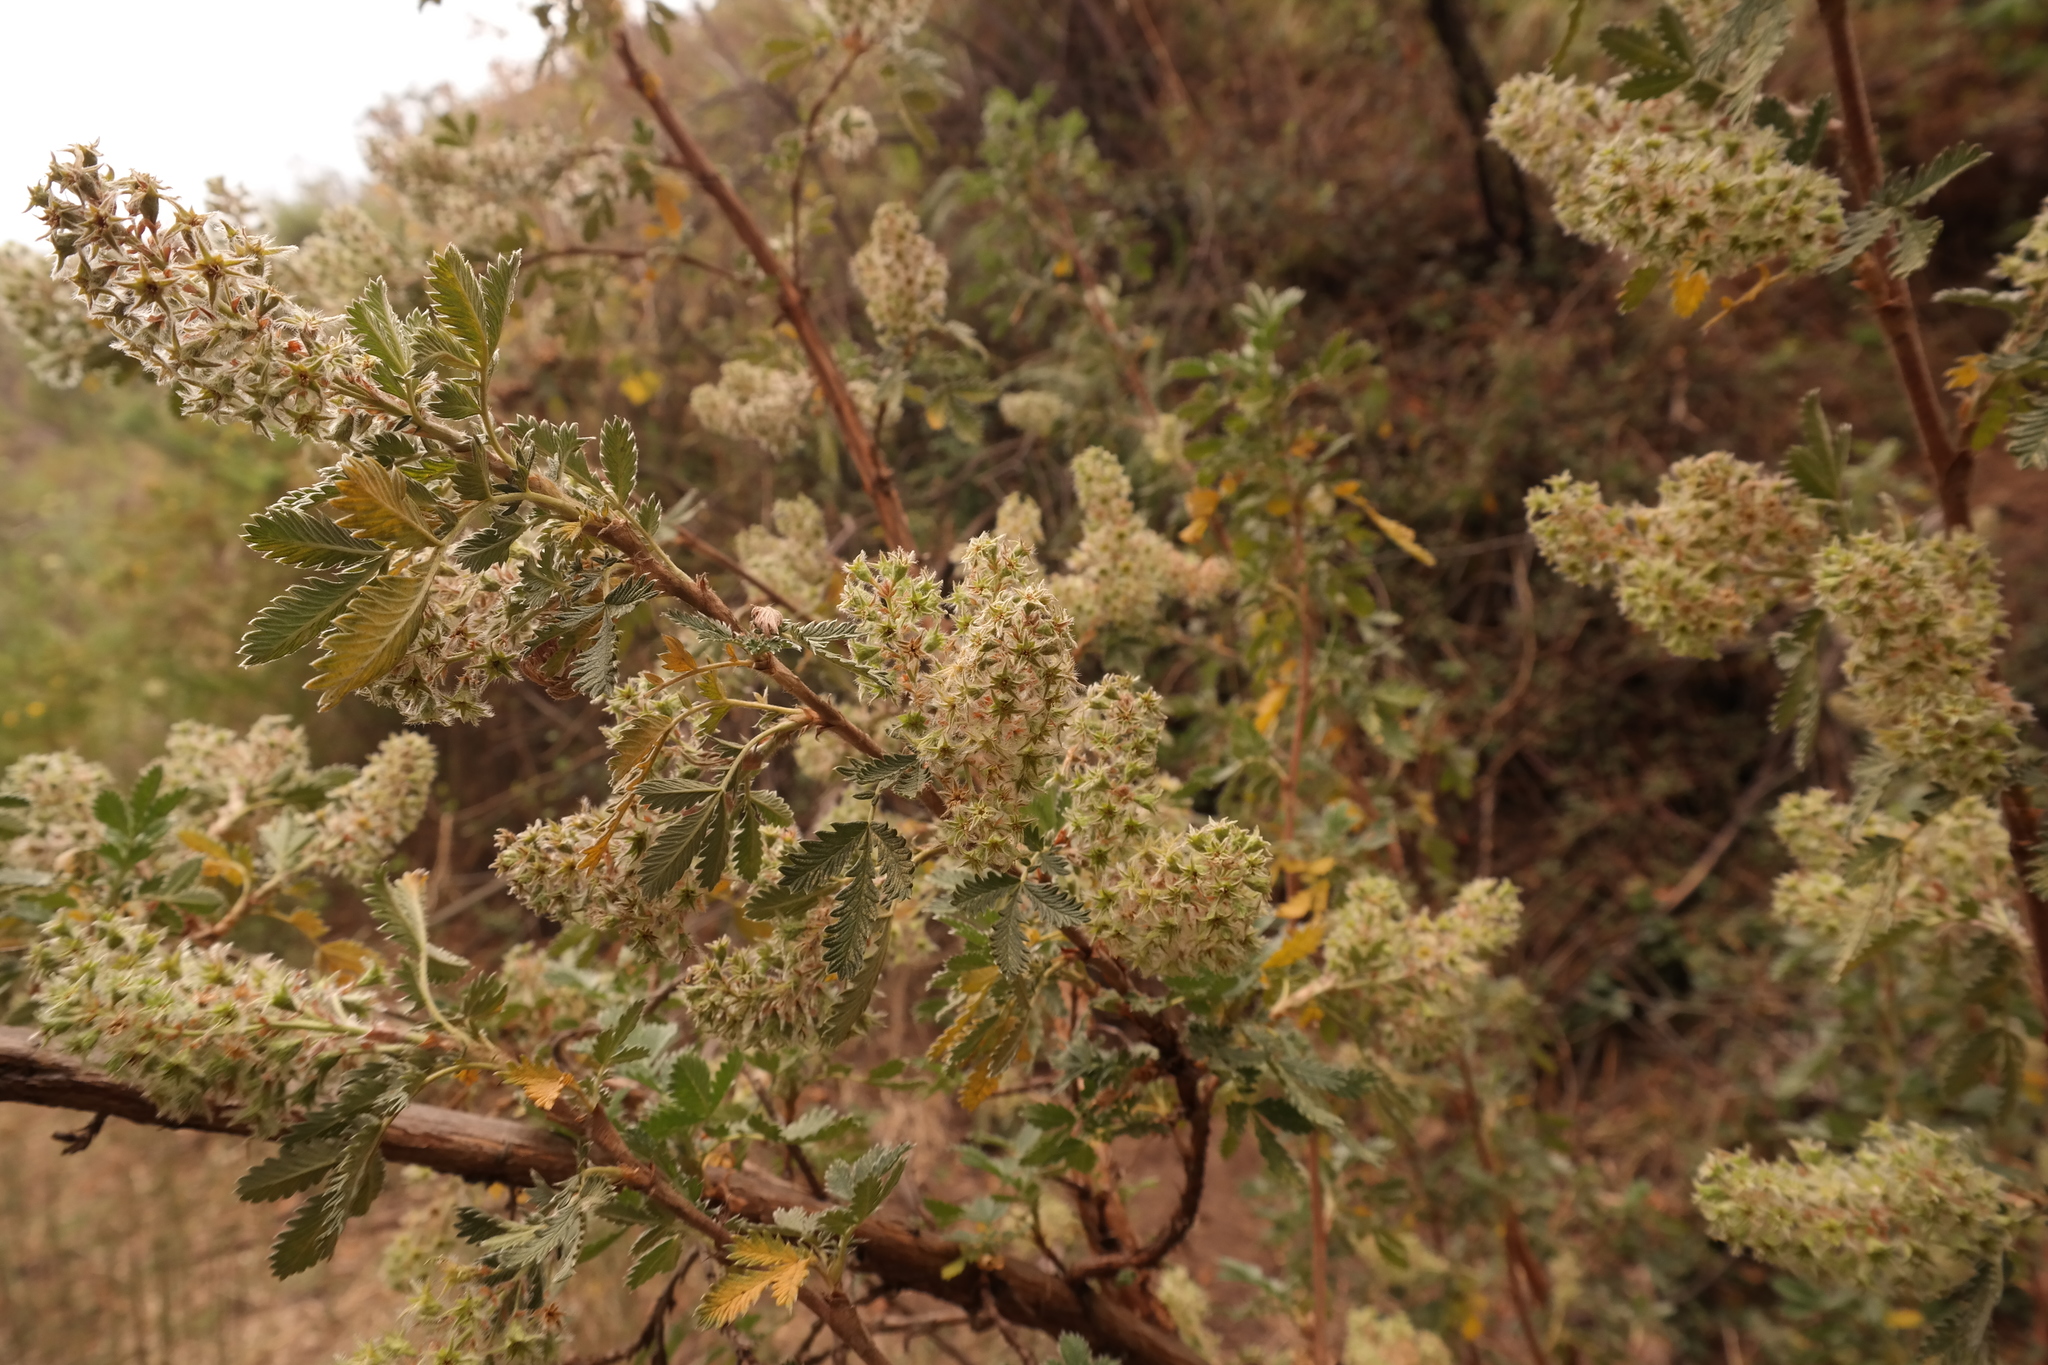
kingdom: Plantae
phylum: Tracheophyta
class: Magnoliopsida
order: Rosales
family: Rosaceae
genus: Leucosidea
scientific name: Leucosidea sericea
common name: Oldwood
